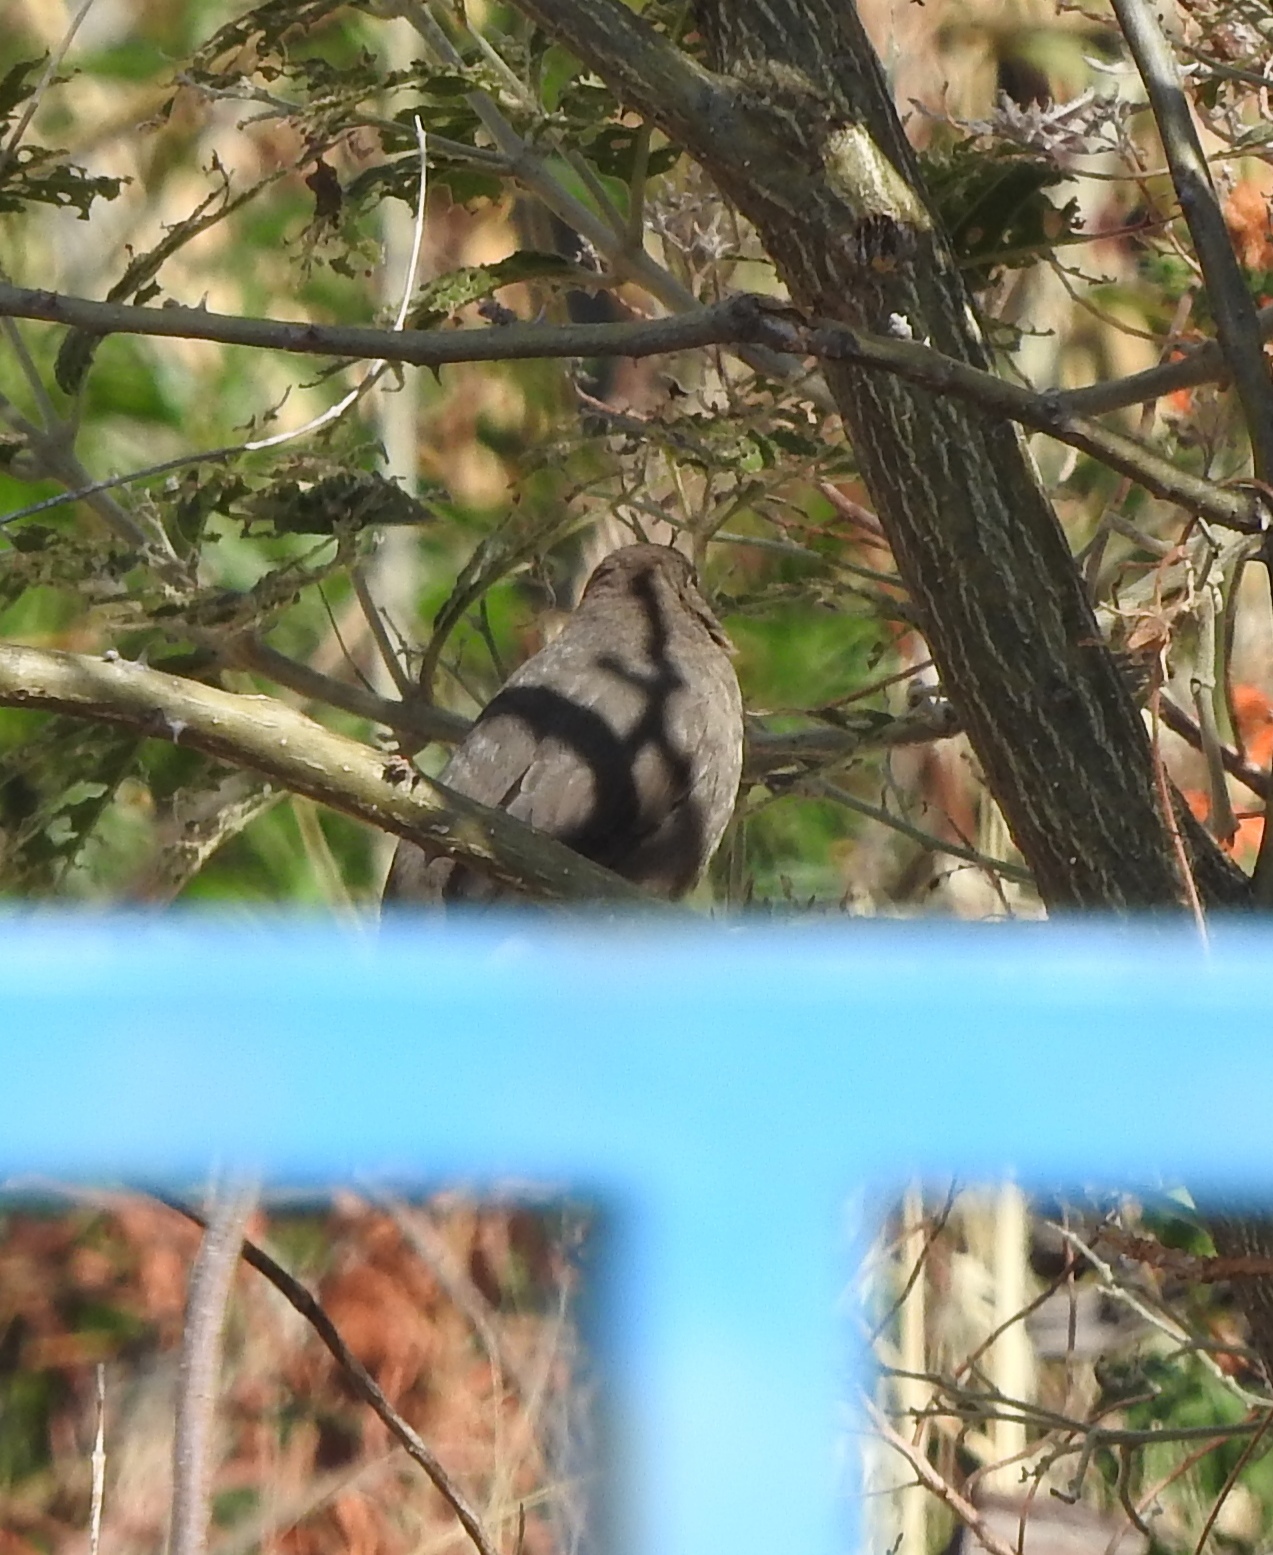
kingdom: Animalia
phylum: Chordata
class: Aves
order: Passeriformes
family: Passerellidae
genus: Melozone
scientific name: Melozone fusca
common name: Canyon towhee
